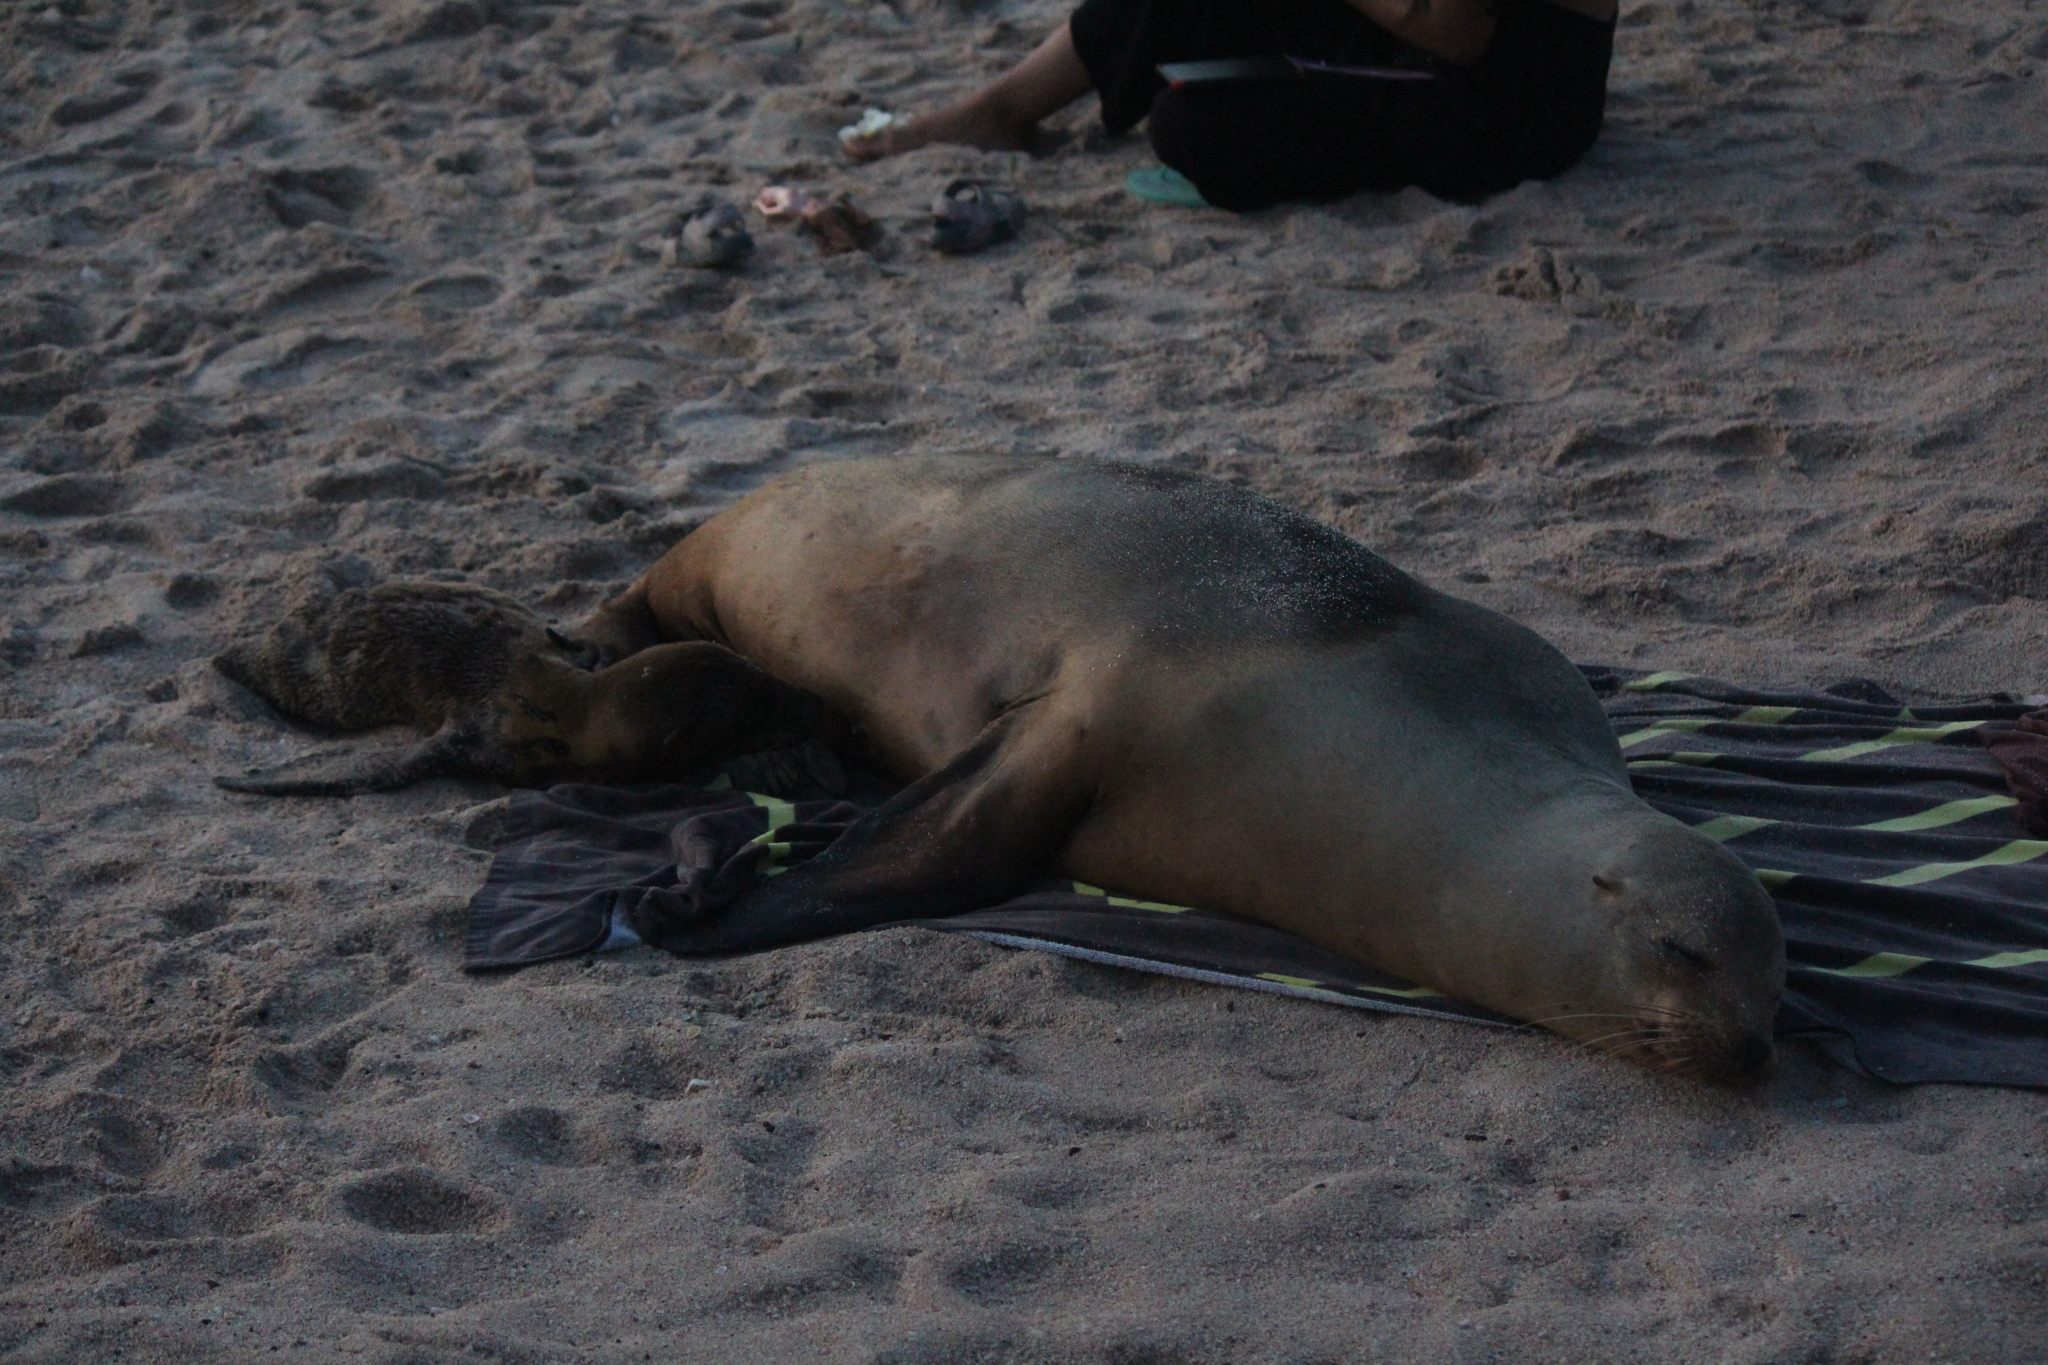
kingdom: Animalia
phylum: Chordata
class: Mammalia
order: Carnivora
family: Otariidae
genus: Zalophus
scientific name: Zalophus wollebaeki
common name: Galapagos sea lion
